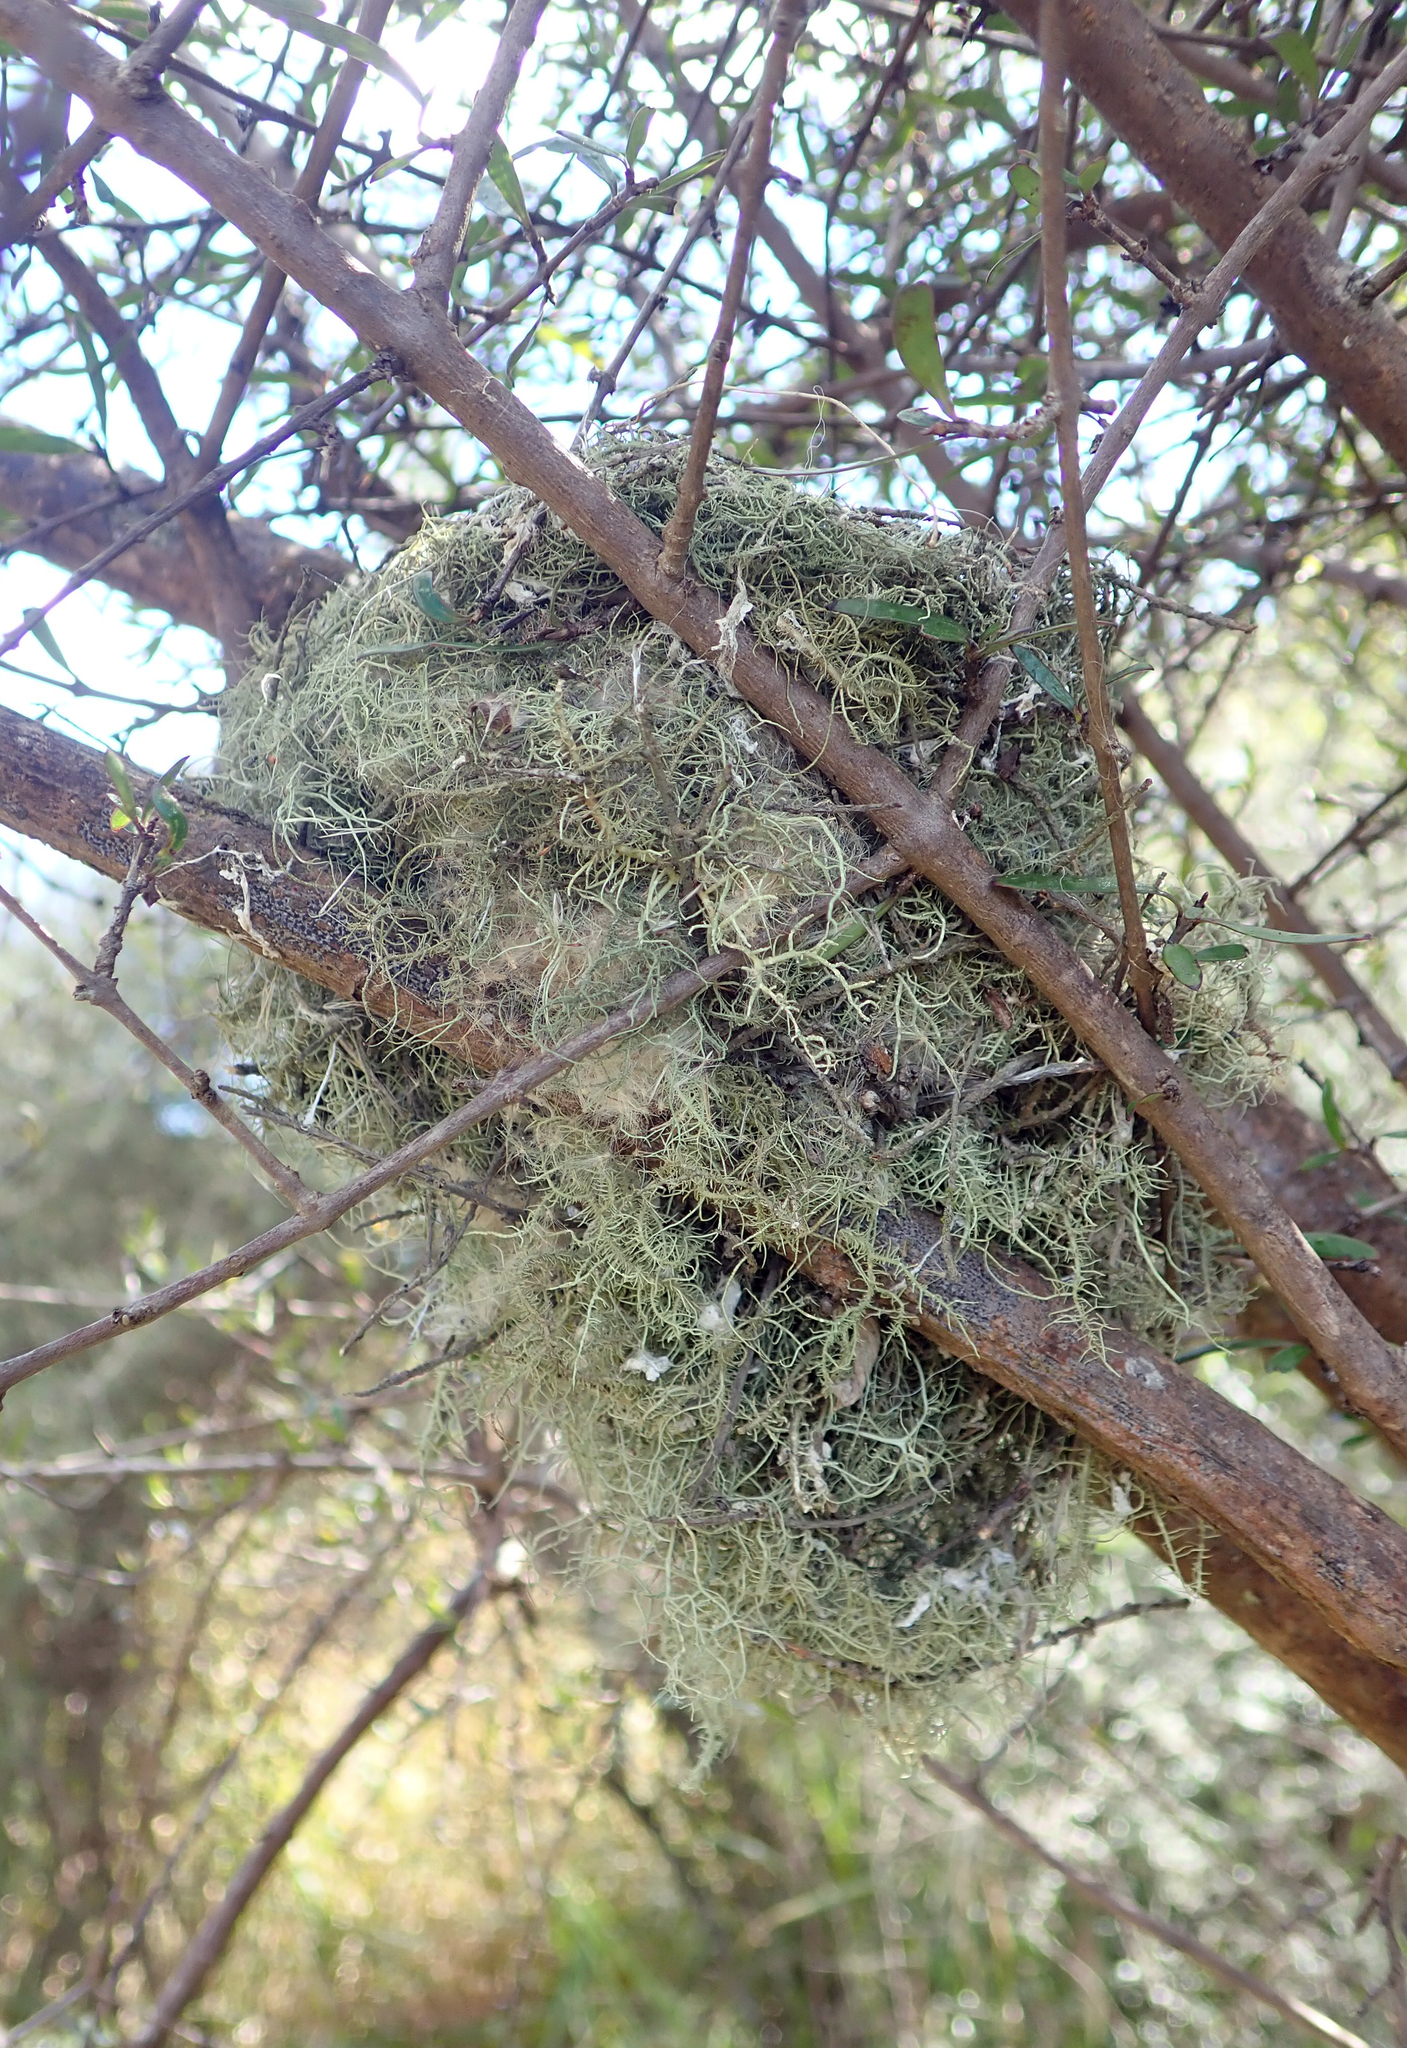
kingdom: Animalia
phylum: Chordata
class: Aves
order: Passeriformes
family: Rhipiduridae
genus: Rhipidura
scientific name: Rhipidura fuliginosa
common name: New zealand fantail
